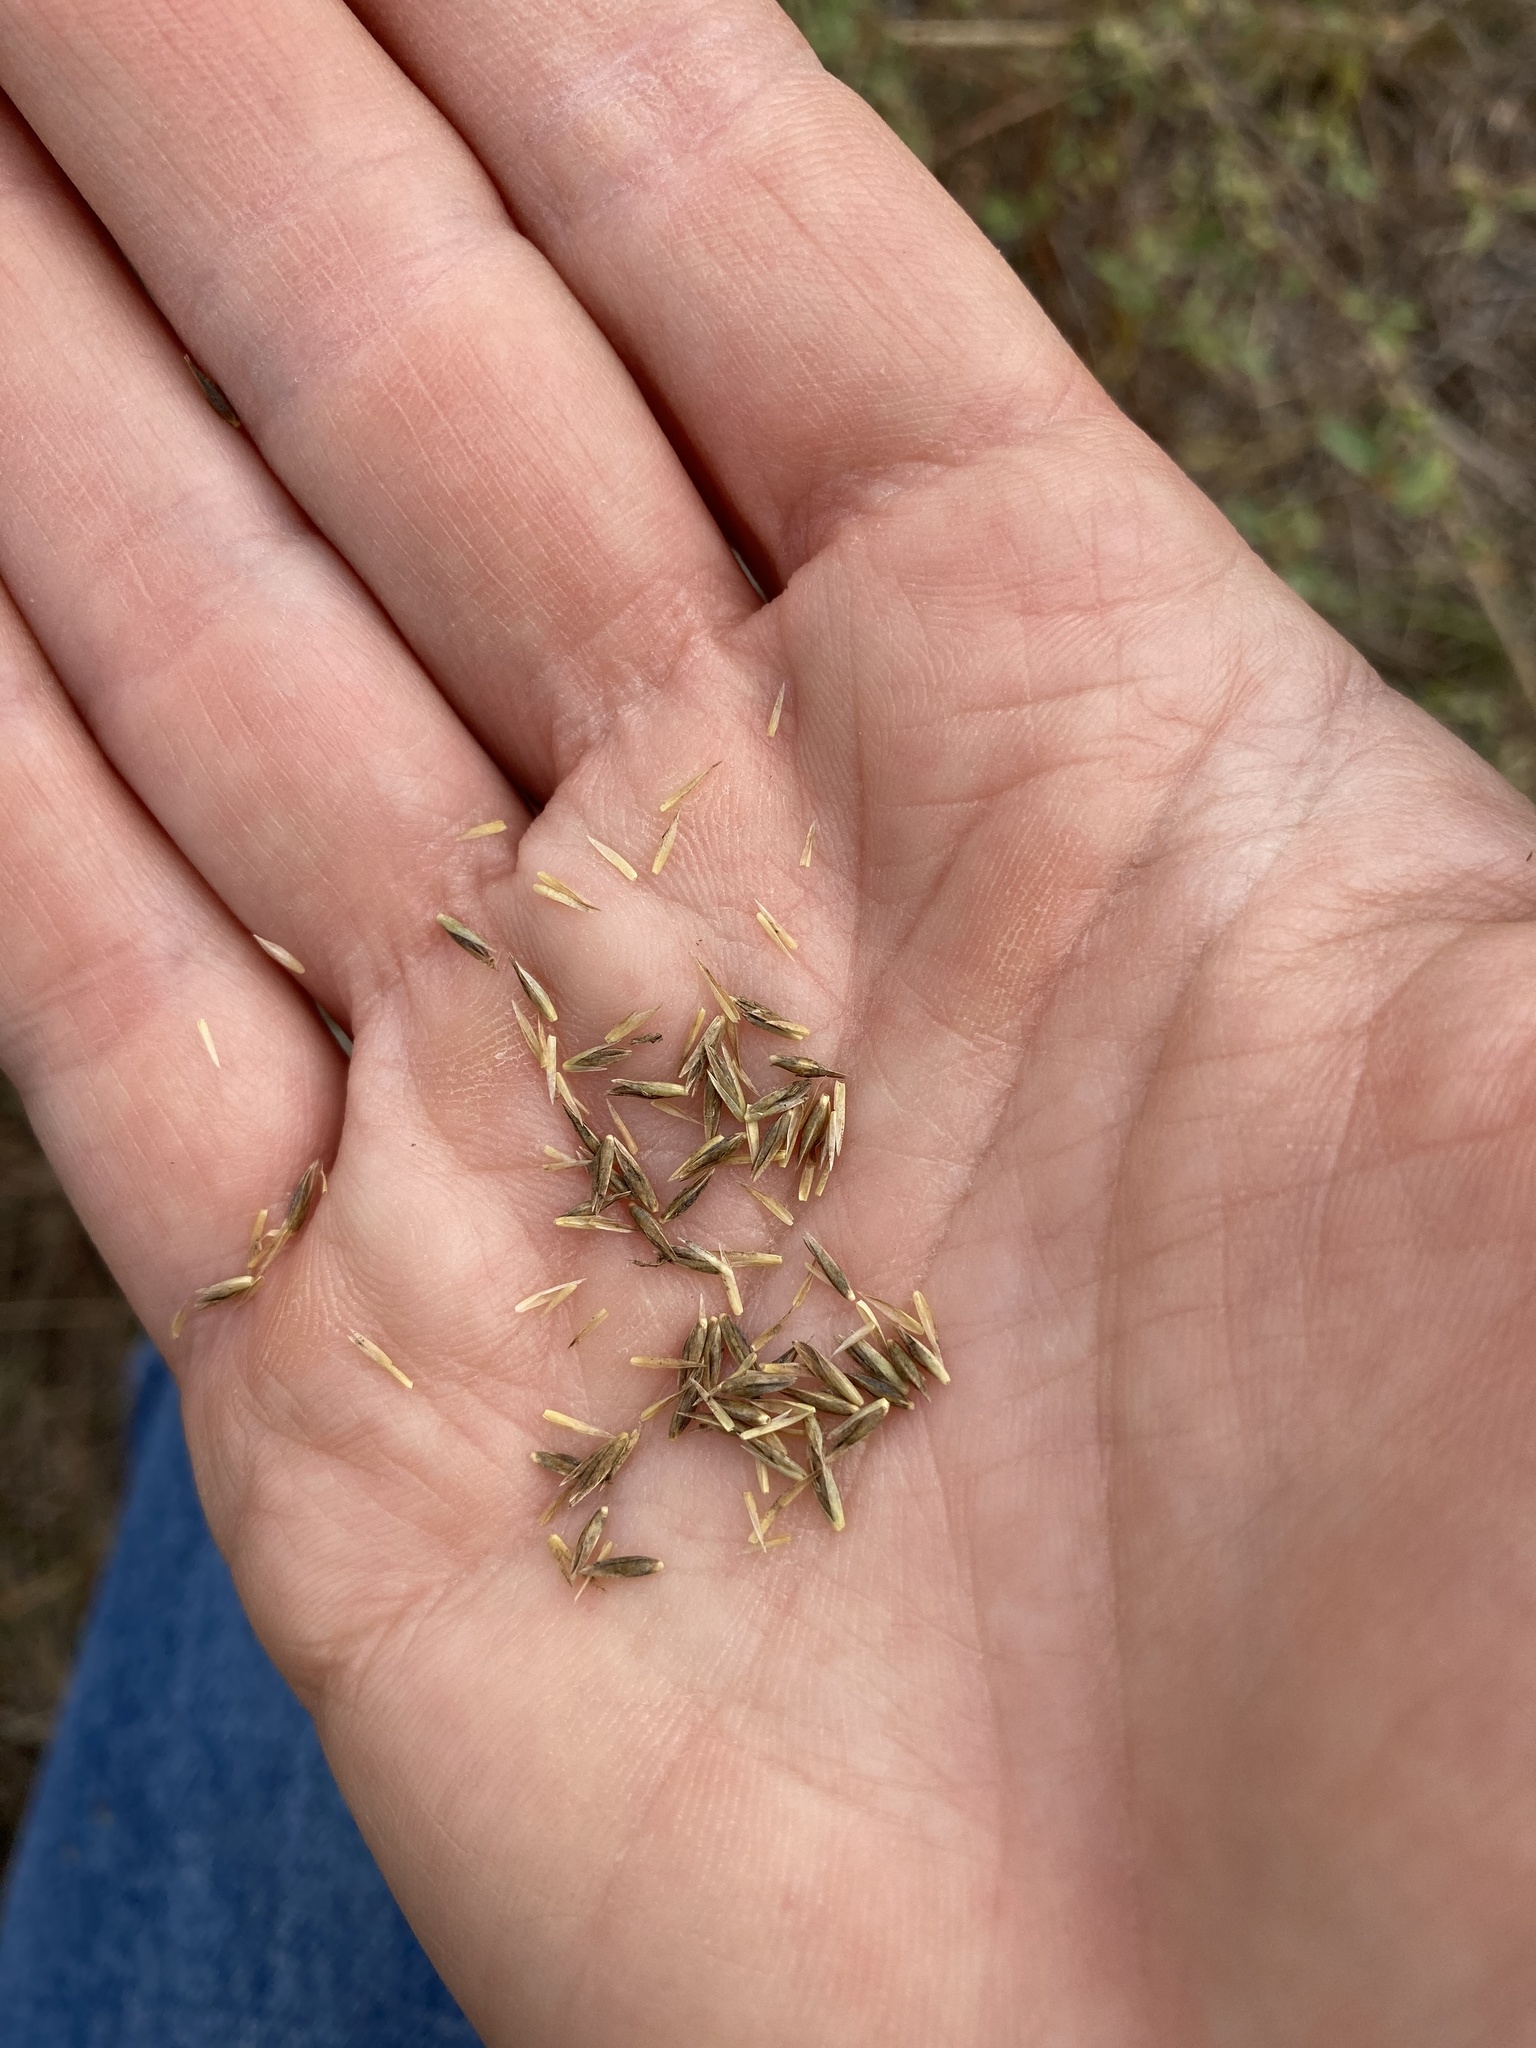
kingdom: Plantae
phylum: Tracheophyta
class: Liliopsida
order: Poales
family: Poaceae
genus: Sporobolus
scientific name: Sporobolus compositus
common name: Rough dropseed
